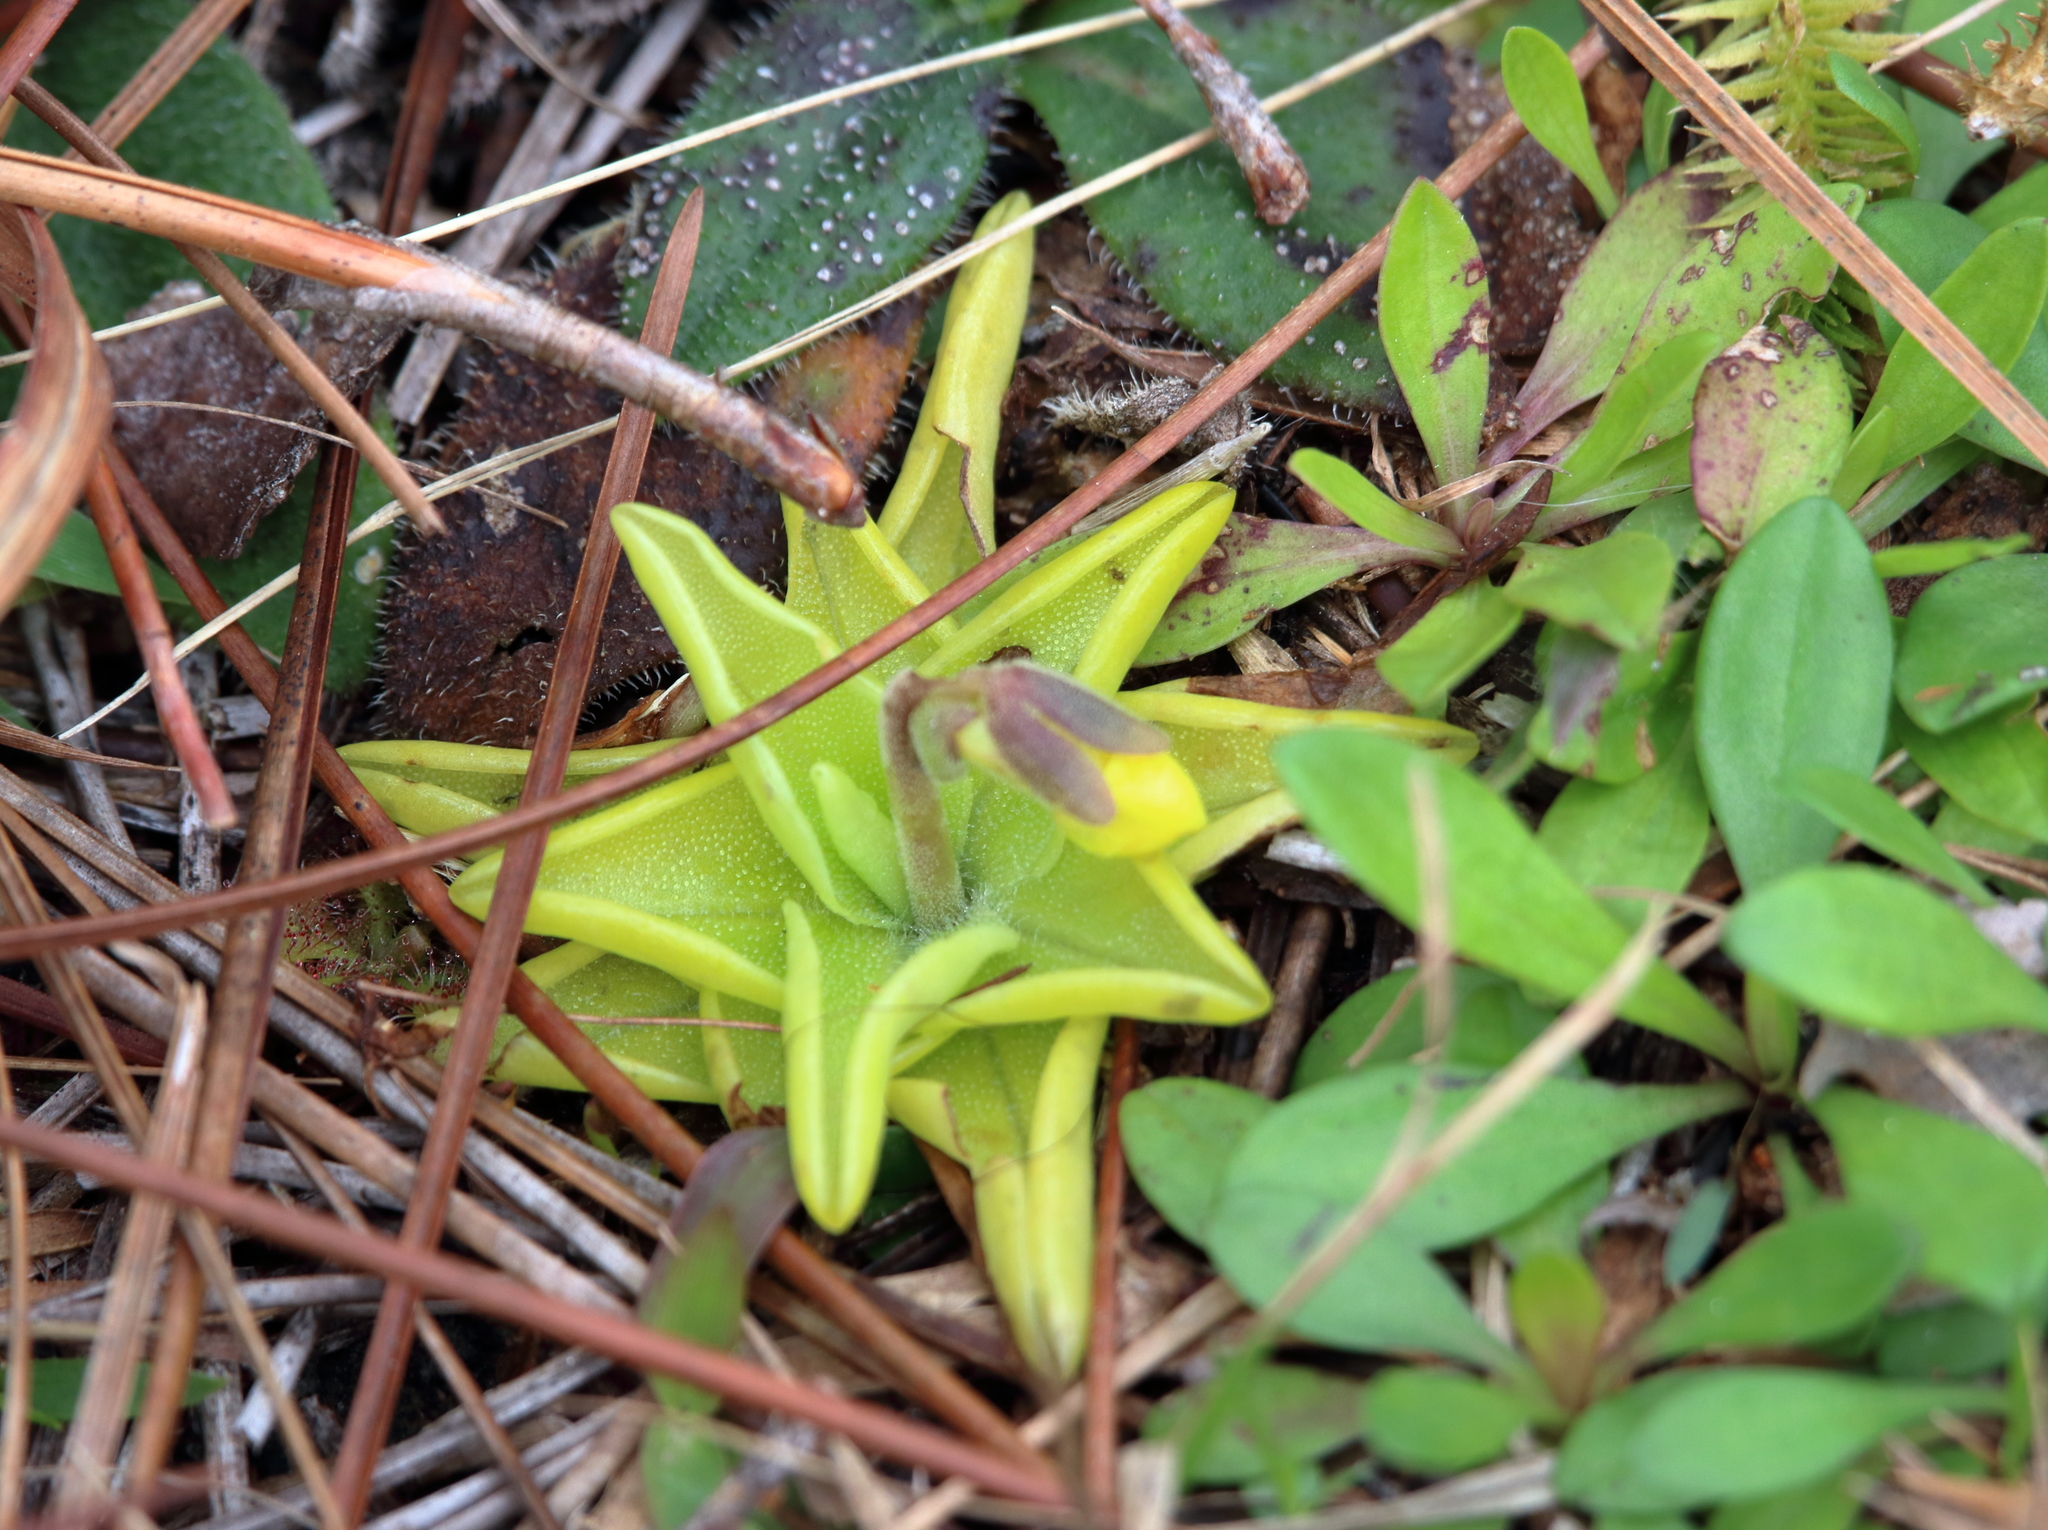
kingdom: Plantae
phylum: Tracheophyta
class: Magnoliopsida
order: Lamiales
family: Lentibulariaceae
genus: Pinguicula
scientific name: Pinguicula lutea
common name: Yellow butterwort
